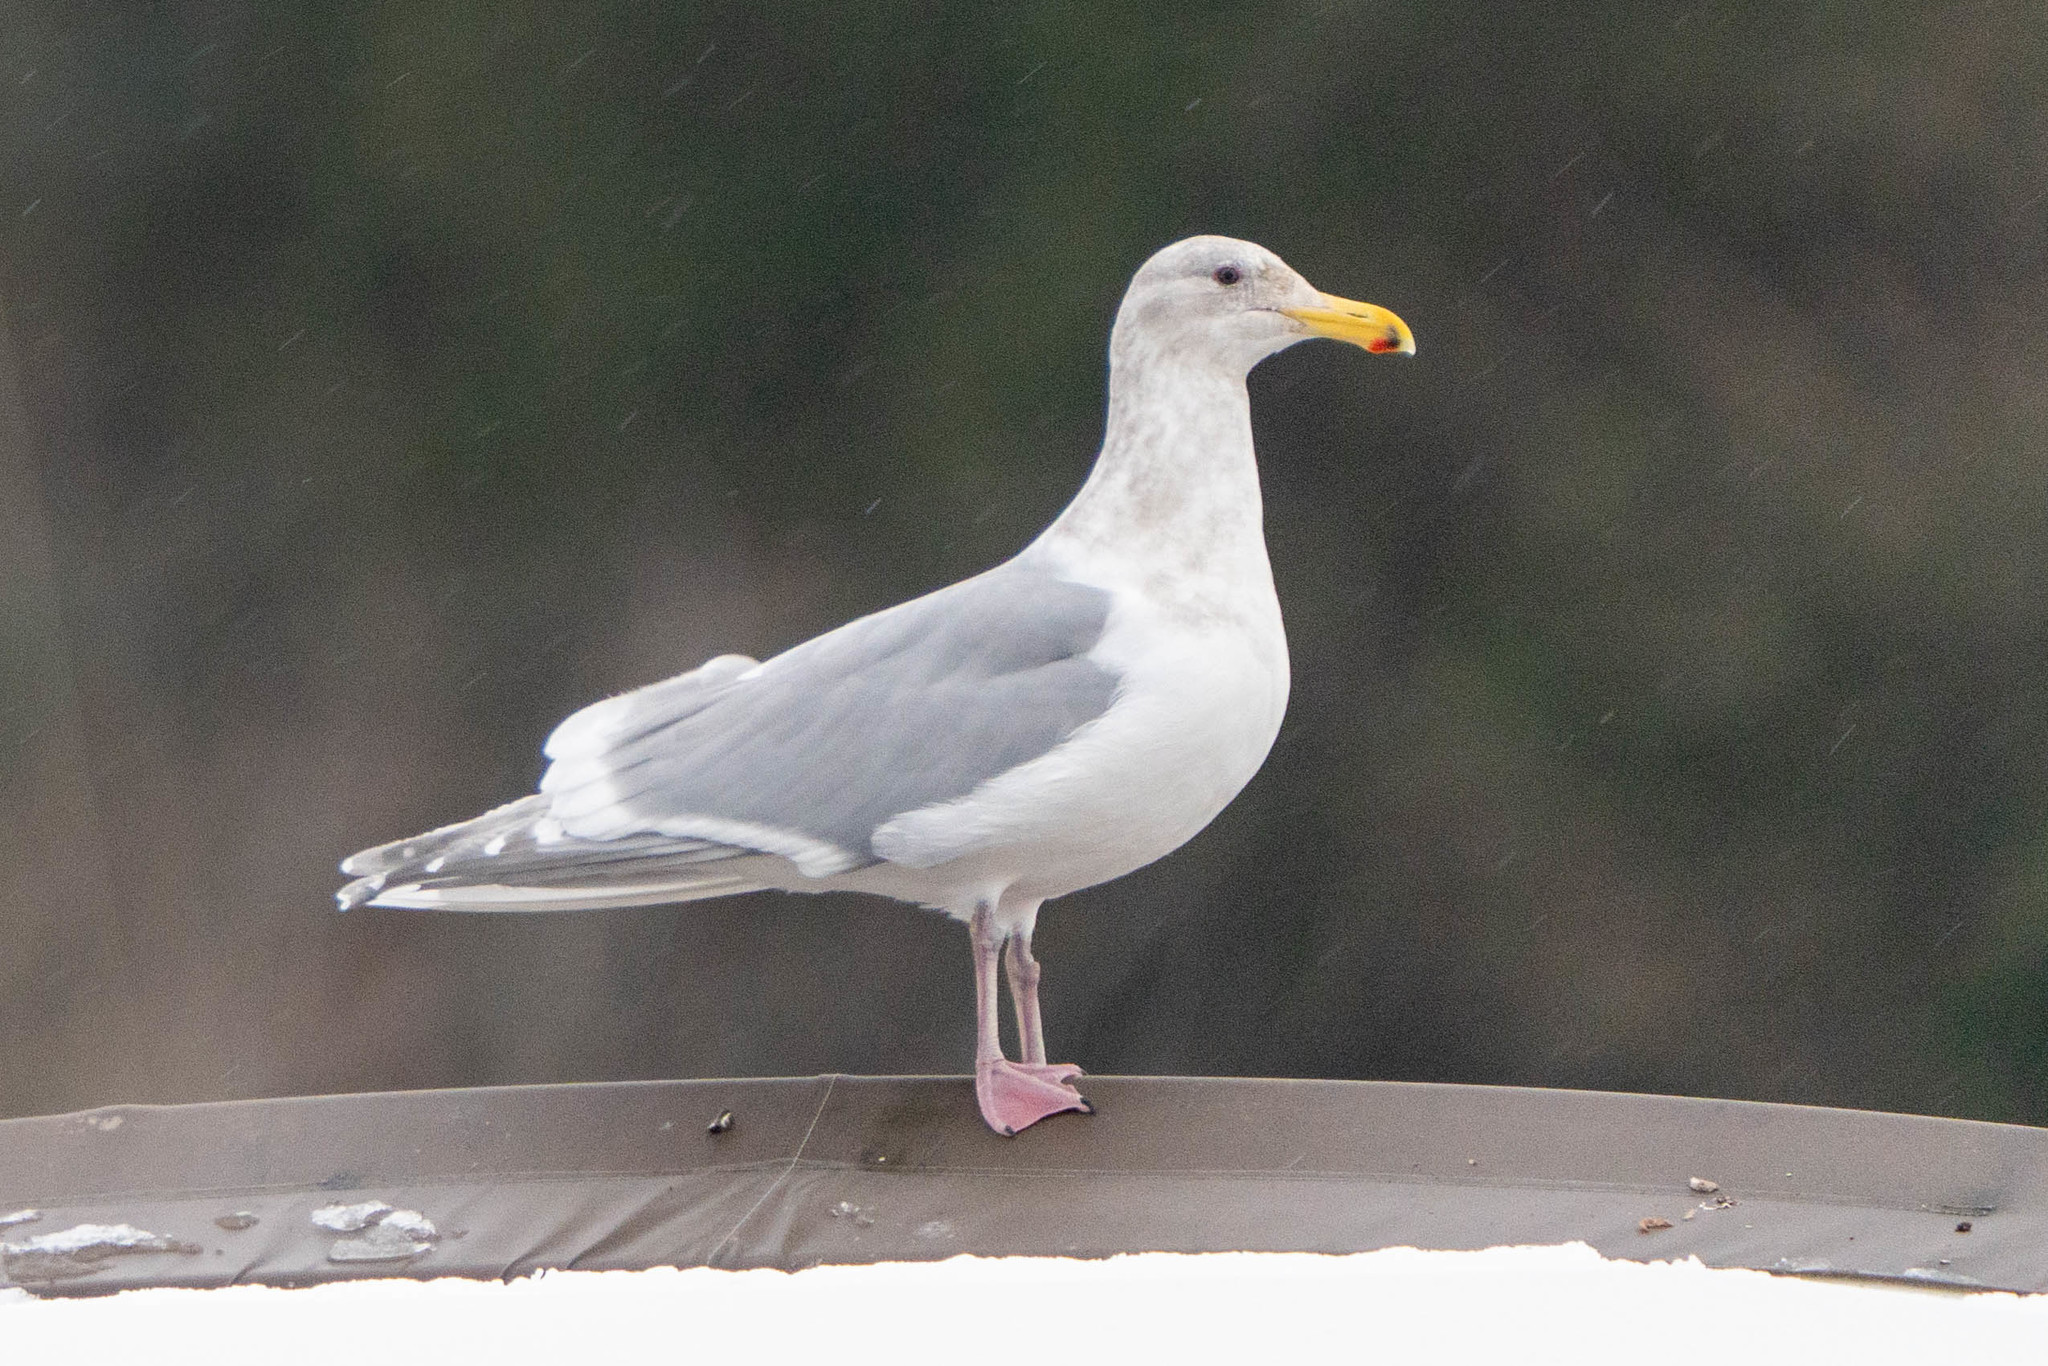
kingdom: Animalia
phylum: Chordata
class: Aves
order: Charadriiformes
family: Laridae
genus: Larus
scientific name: Larus glaucescens
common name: Glaucous-winged gull
